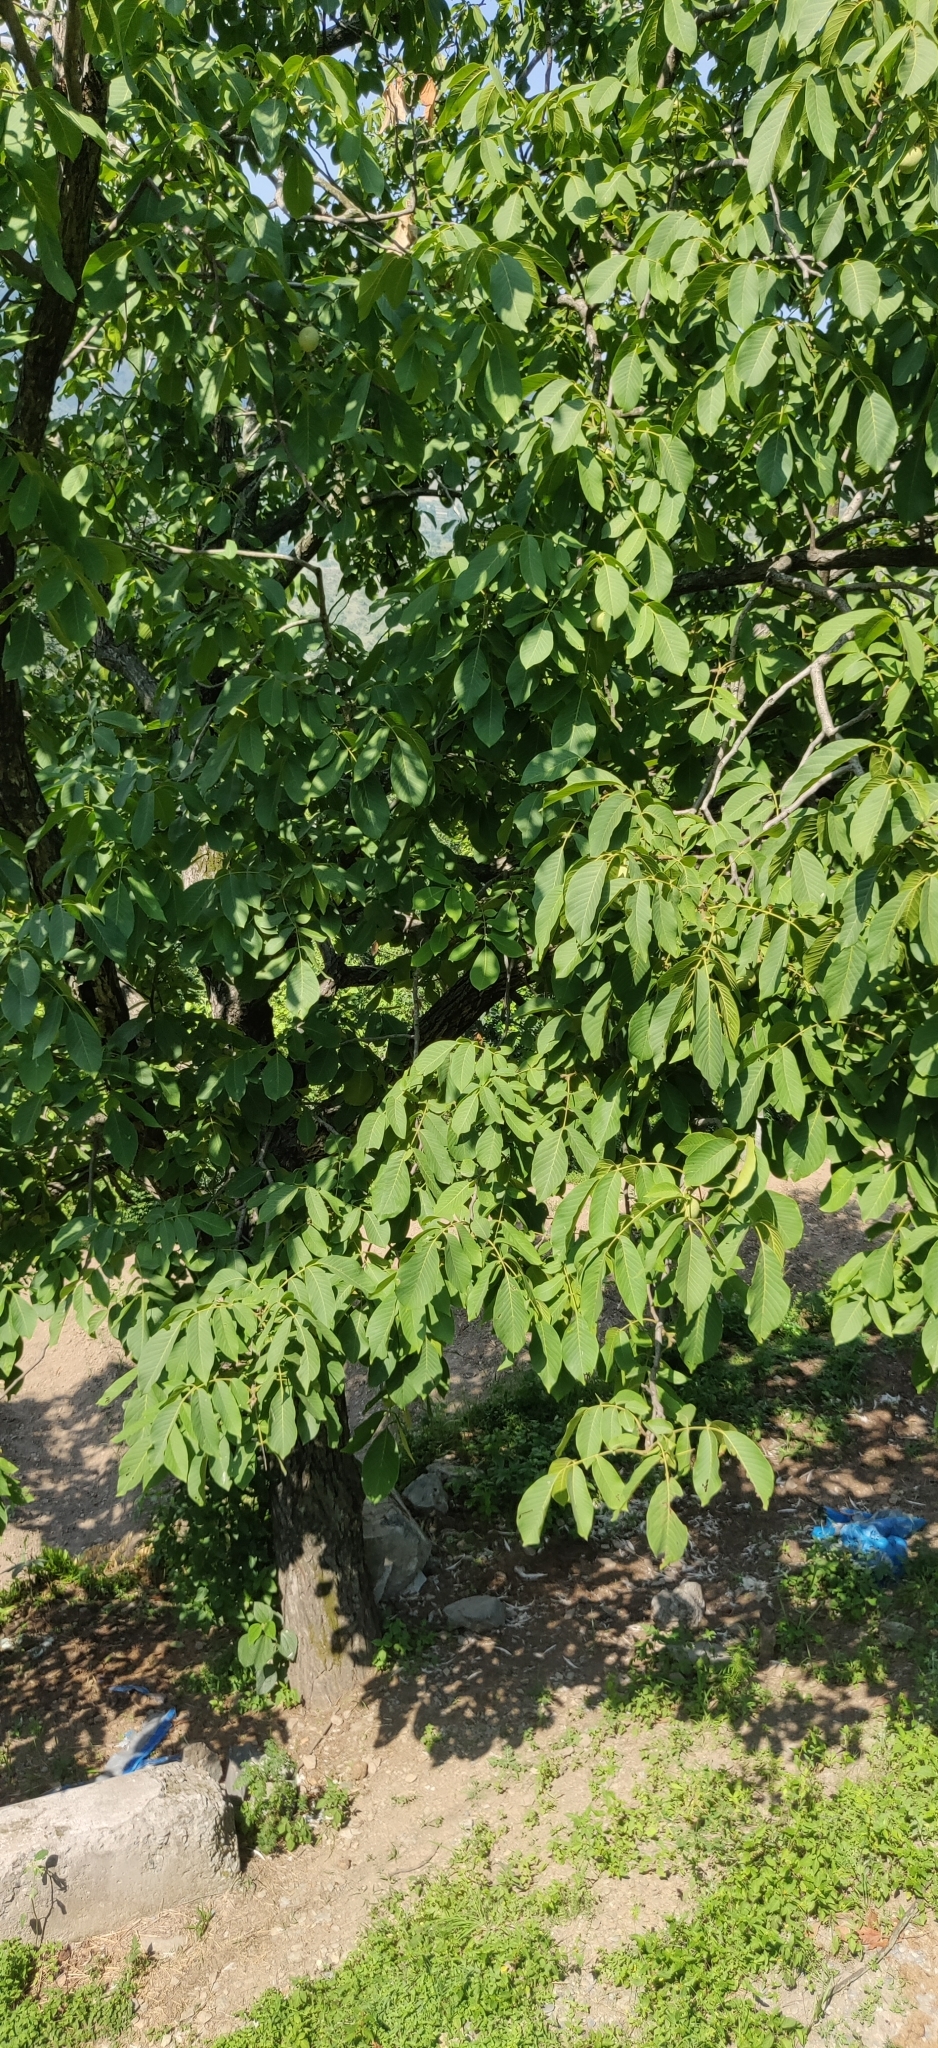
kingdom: Plantae
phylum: Tracheophyta
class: Magnoliopsida
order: Fagales
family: Juglandaceae
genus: Juglans
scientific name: Juglans regia
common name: Walnut
